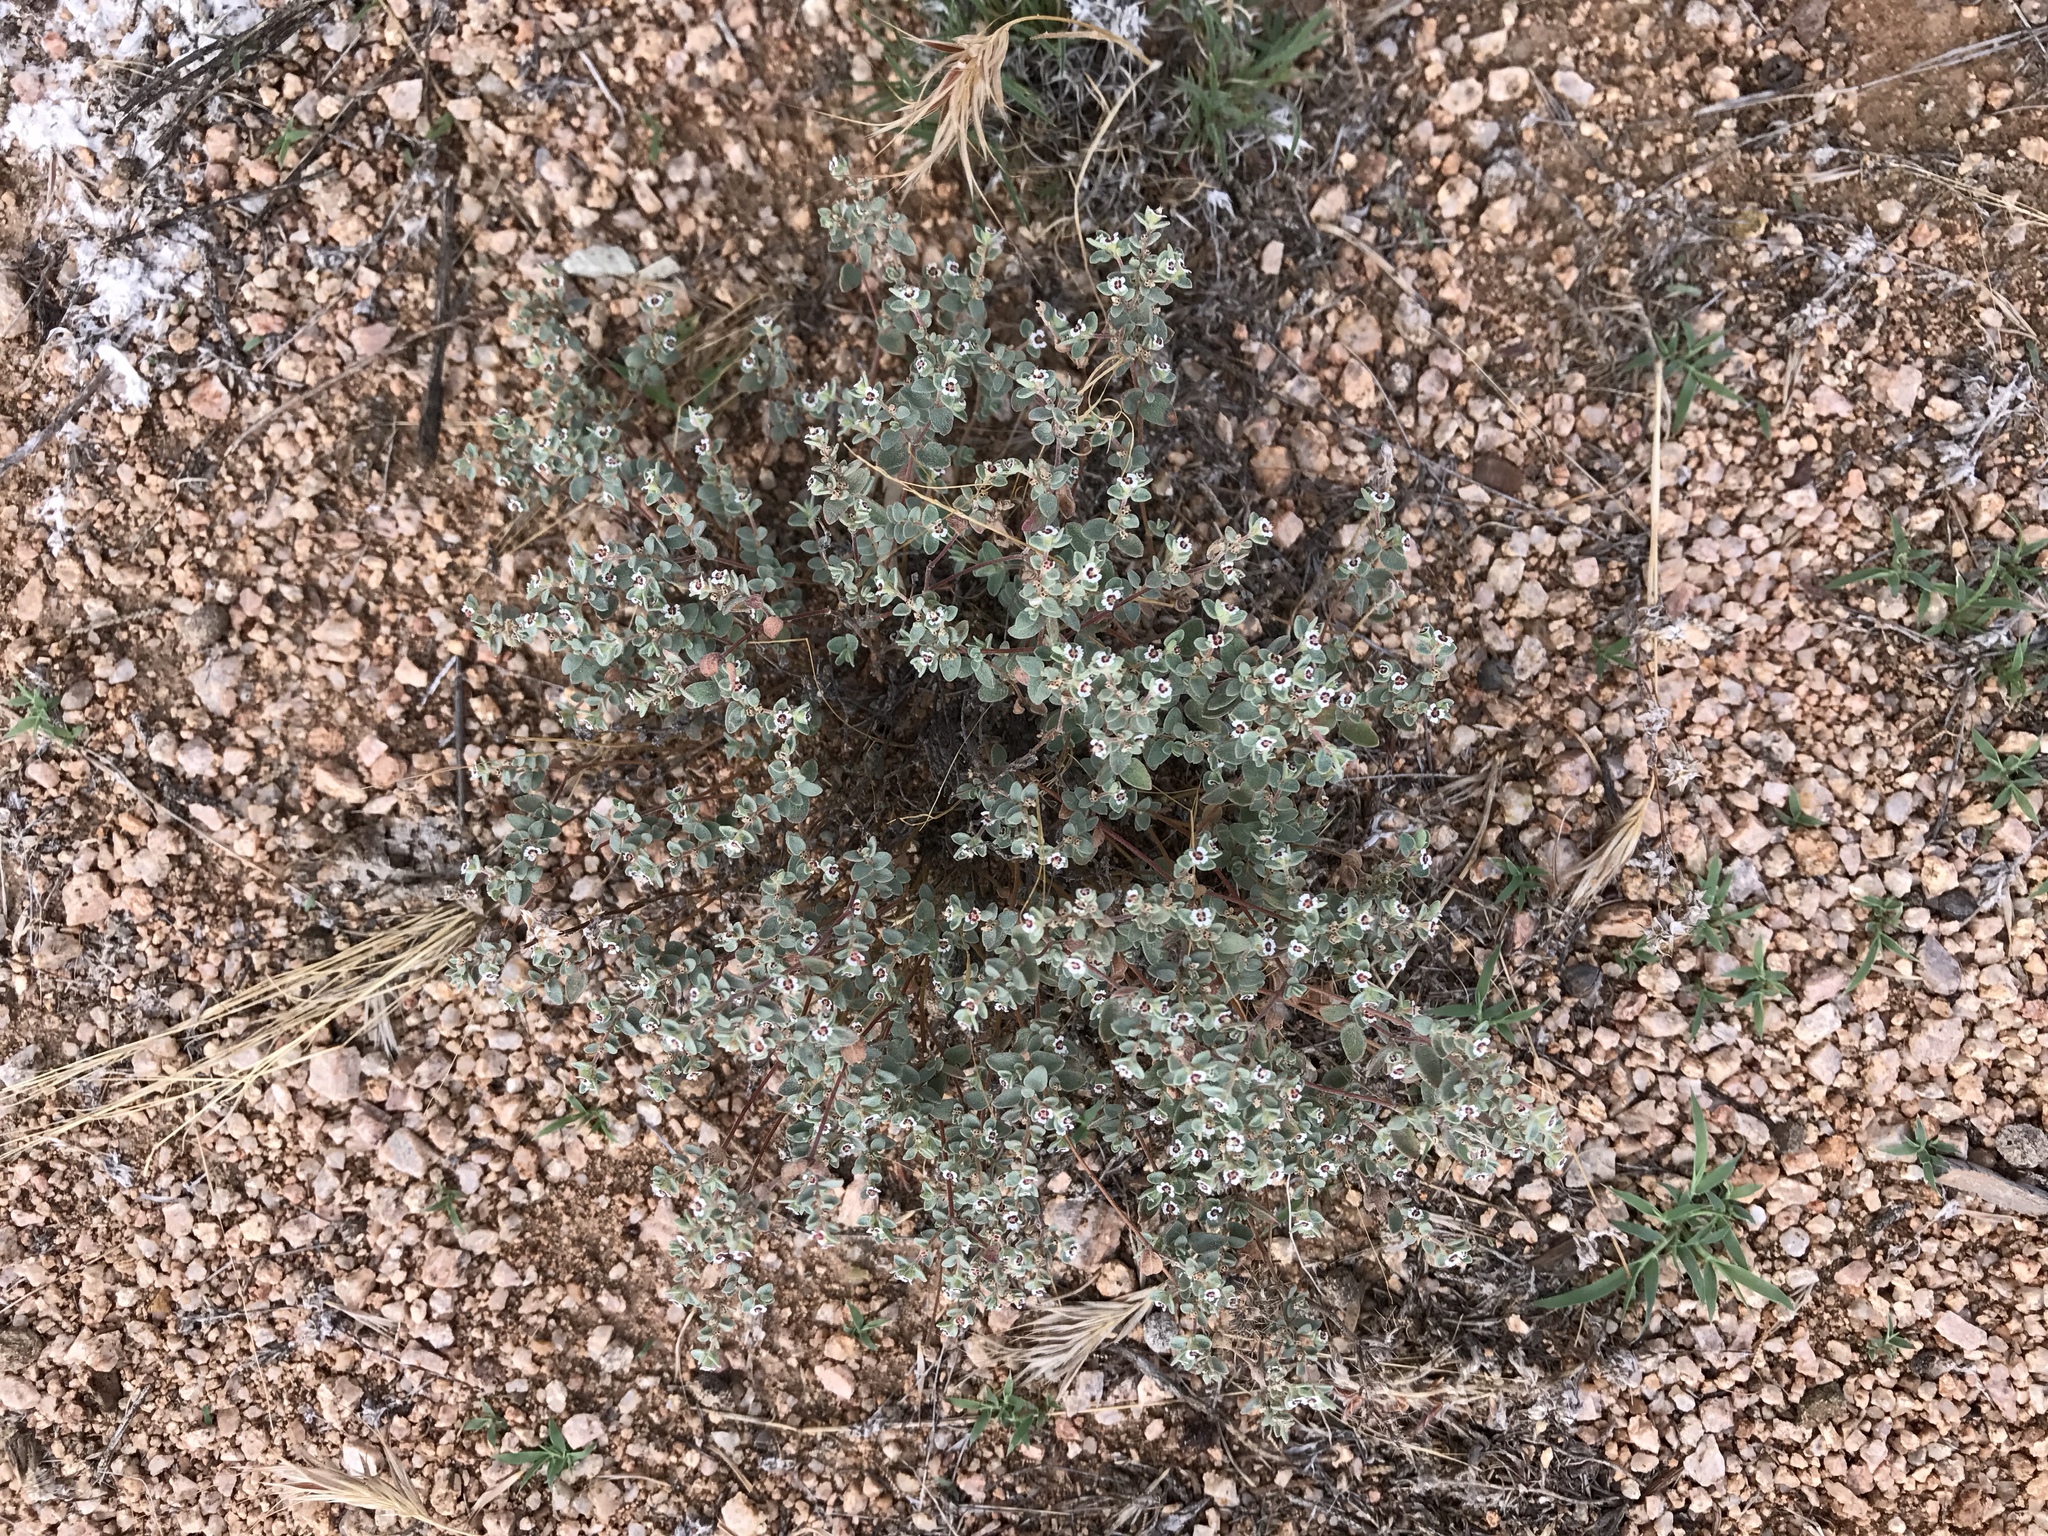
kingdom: Plantae
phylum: Tracheophyta
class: Magnoliopsida
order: Malpighiales
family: Euphorbiaceae
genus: Euphorbia
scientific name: Euphorbia melanadenia
